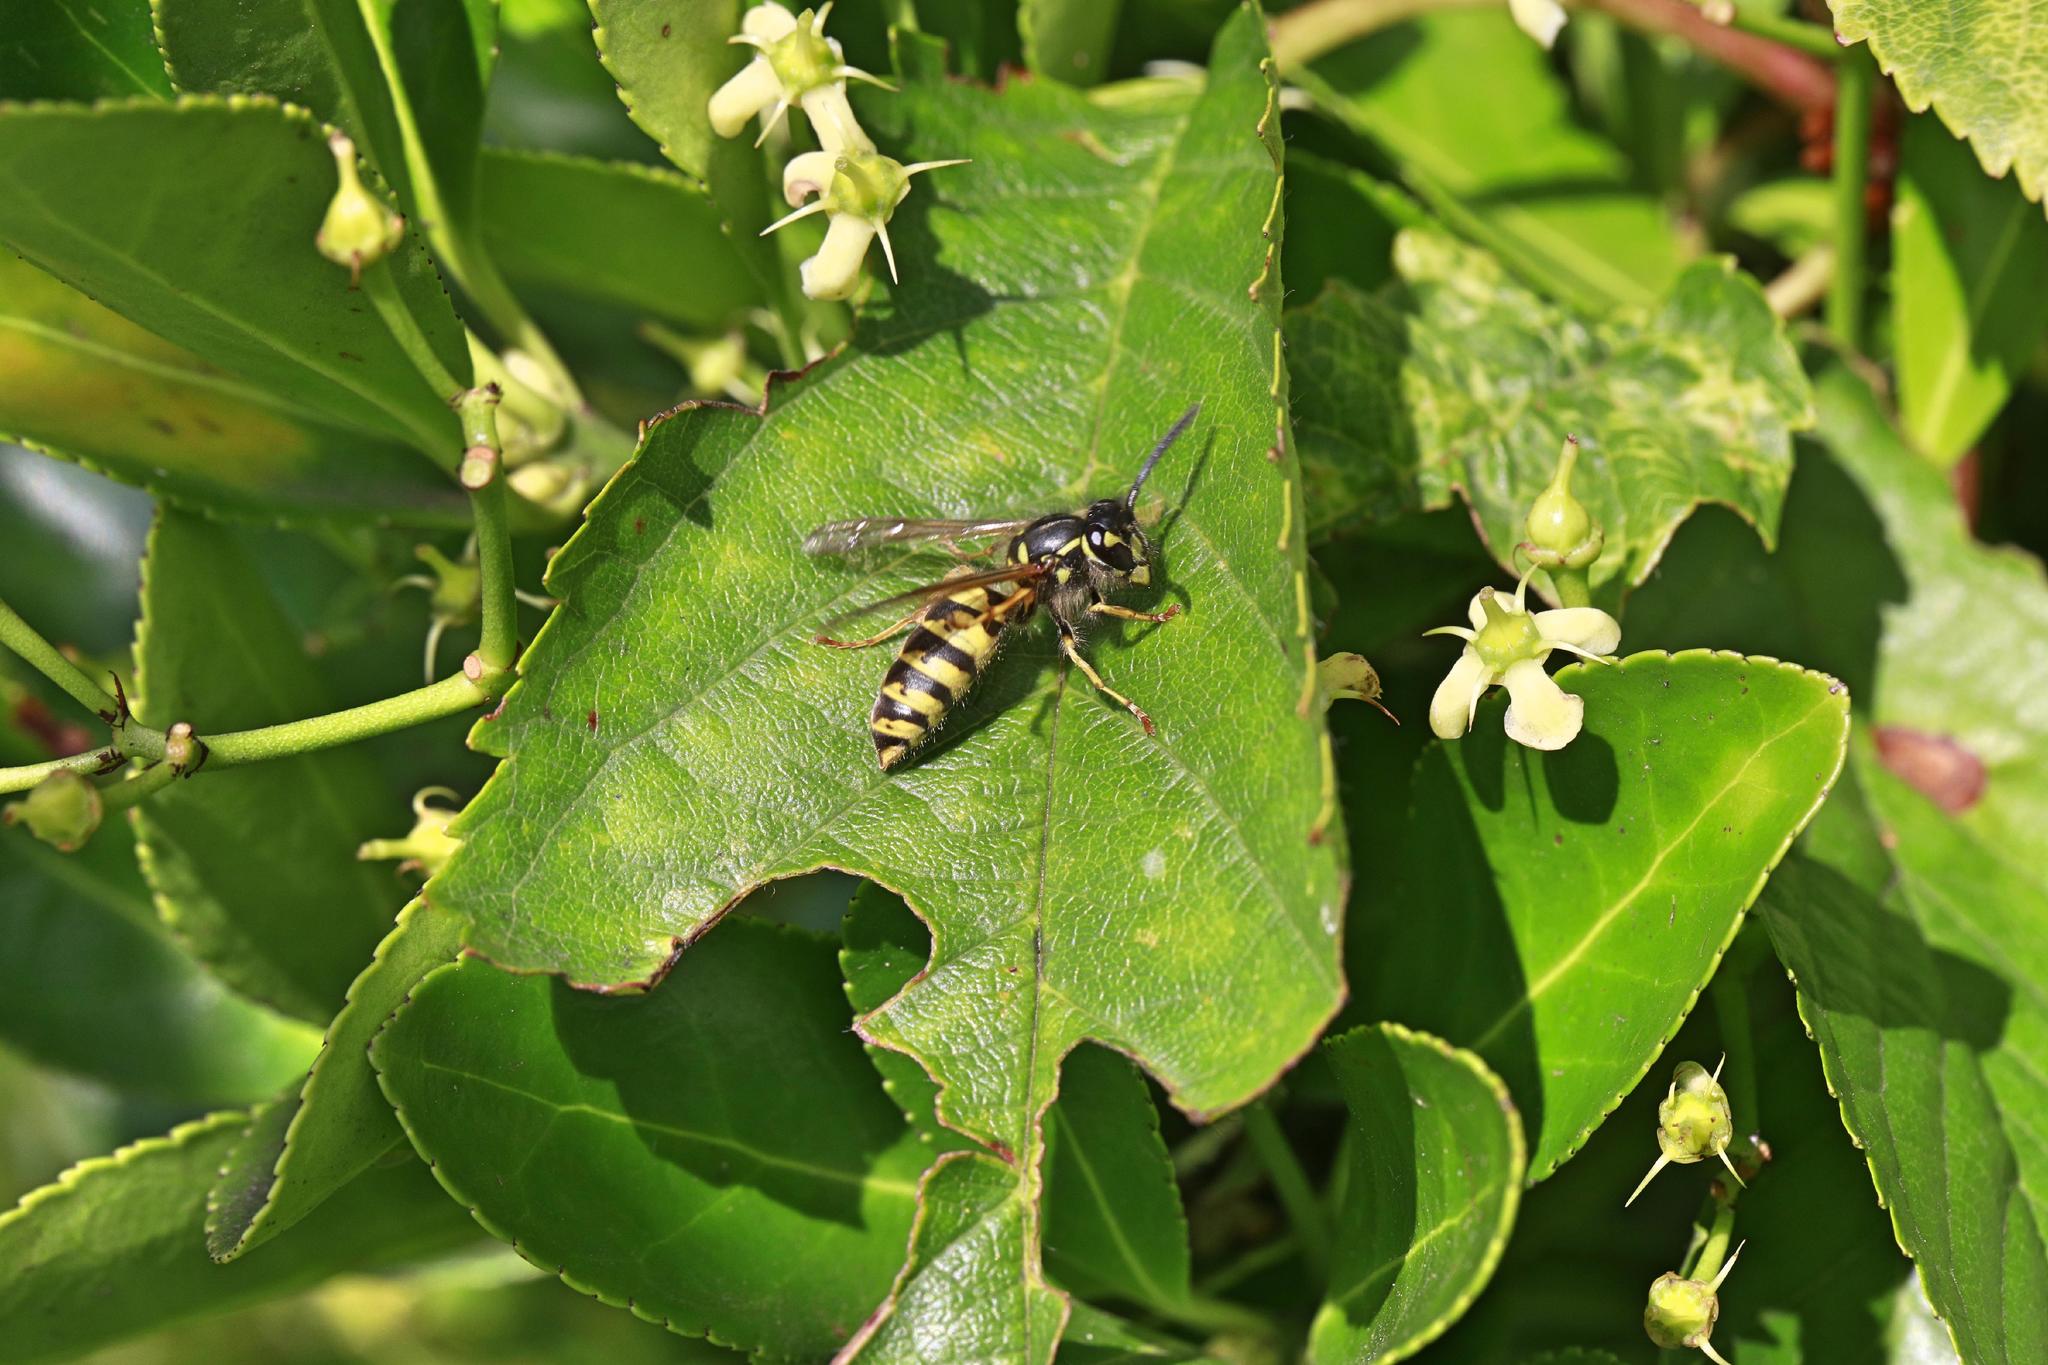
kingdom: Animalia
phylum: Arthropoda
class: Insecta
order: Hymenoptera
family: Vespidae
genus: Vespula
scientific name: Vespula vulgaris
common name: Common wasp
